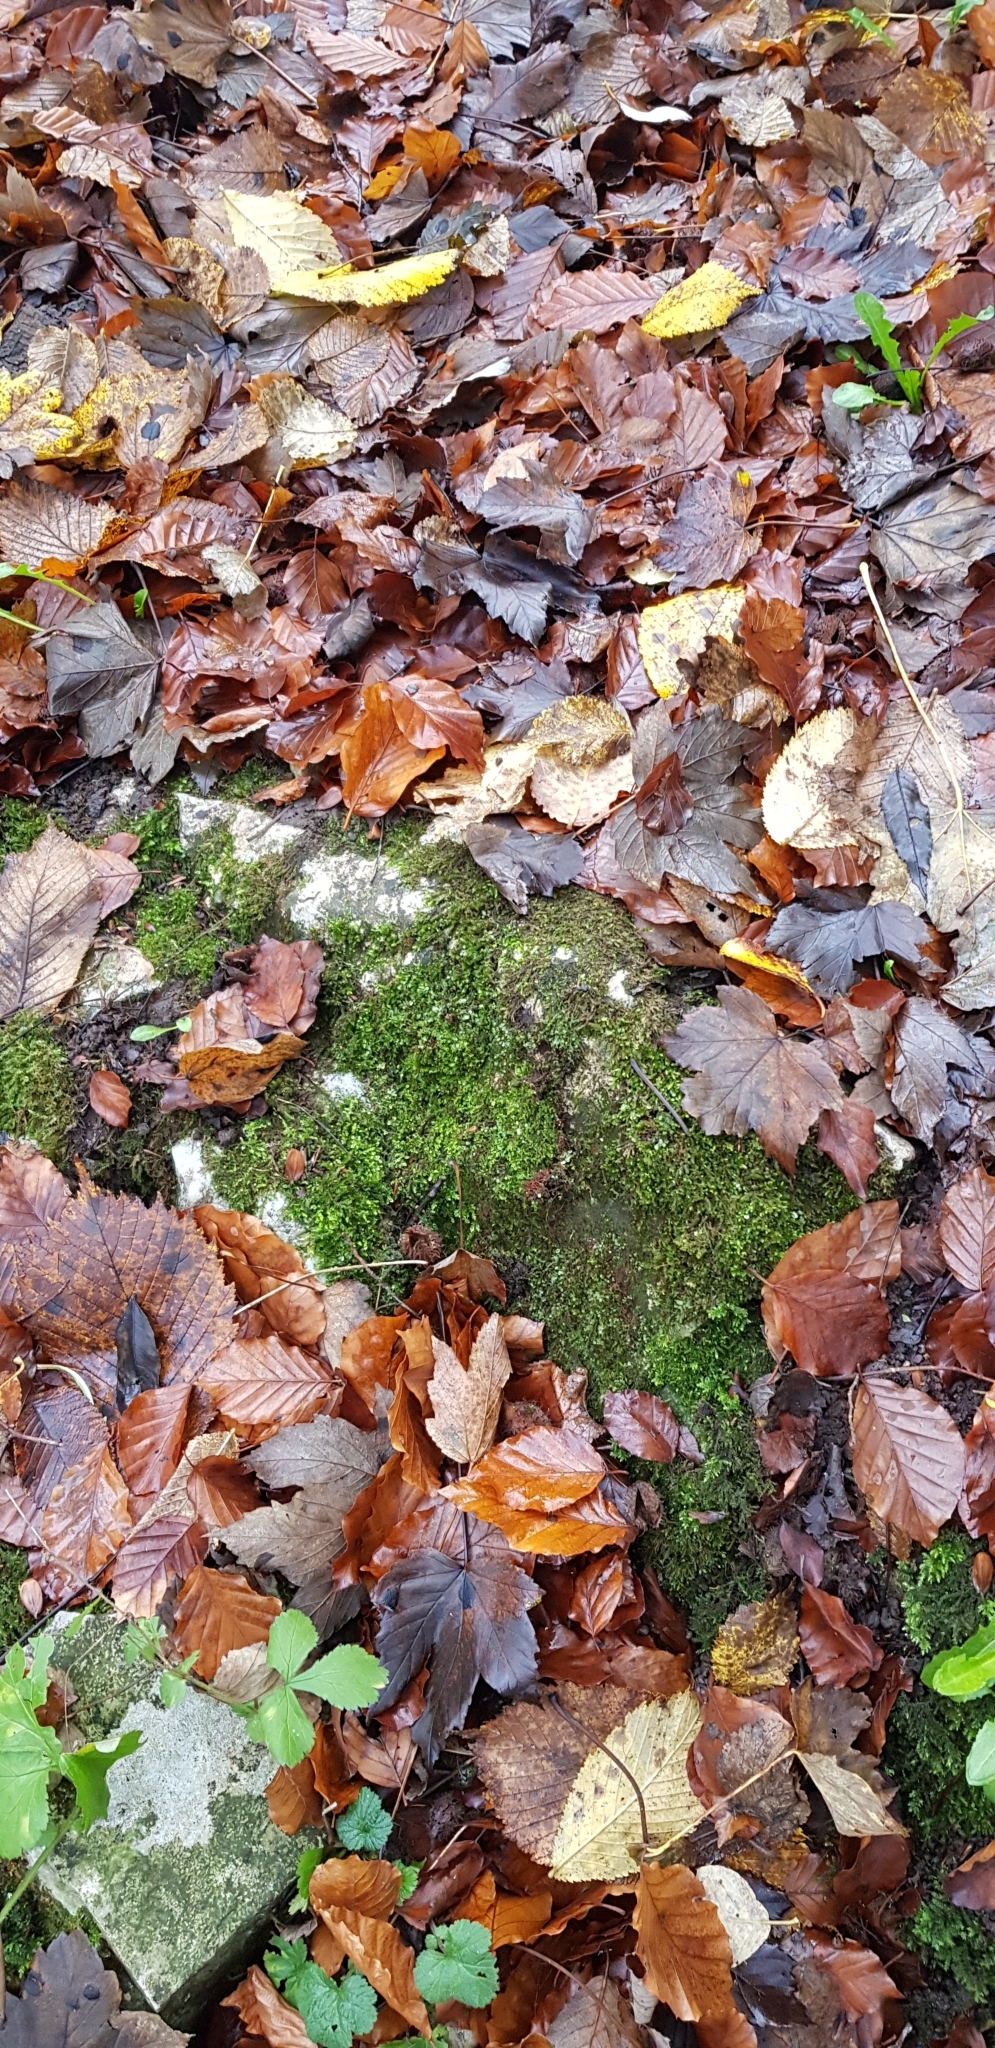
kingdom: Plantae
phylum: Bryophyta
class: Bryopsida
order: Bryales
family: Mniaceae
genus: Plagiomnium
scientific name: Plagiomnium rostratum
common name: Long-beaked leafy moss
